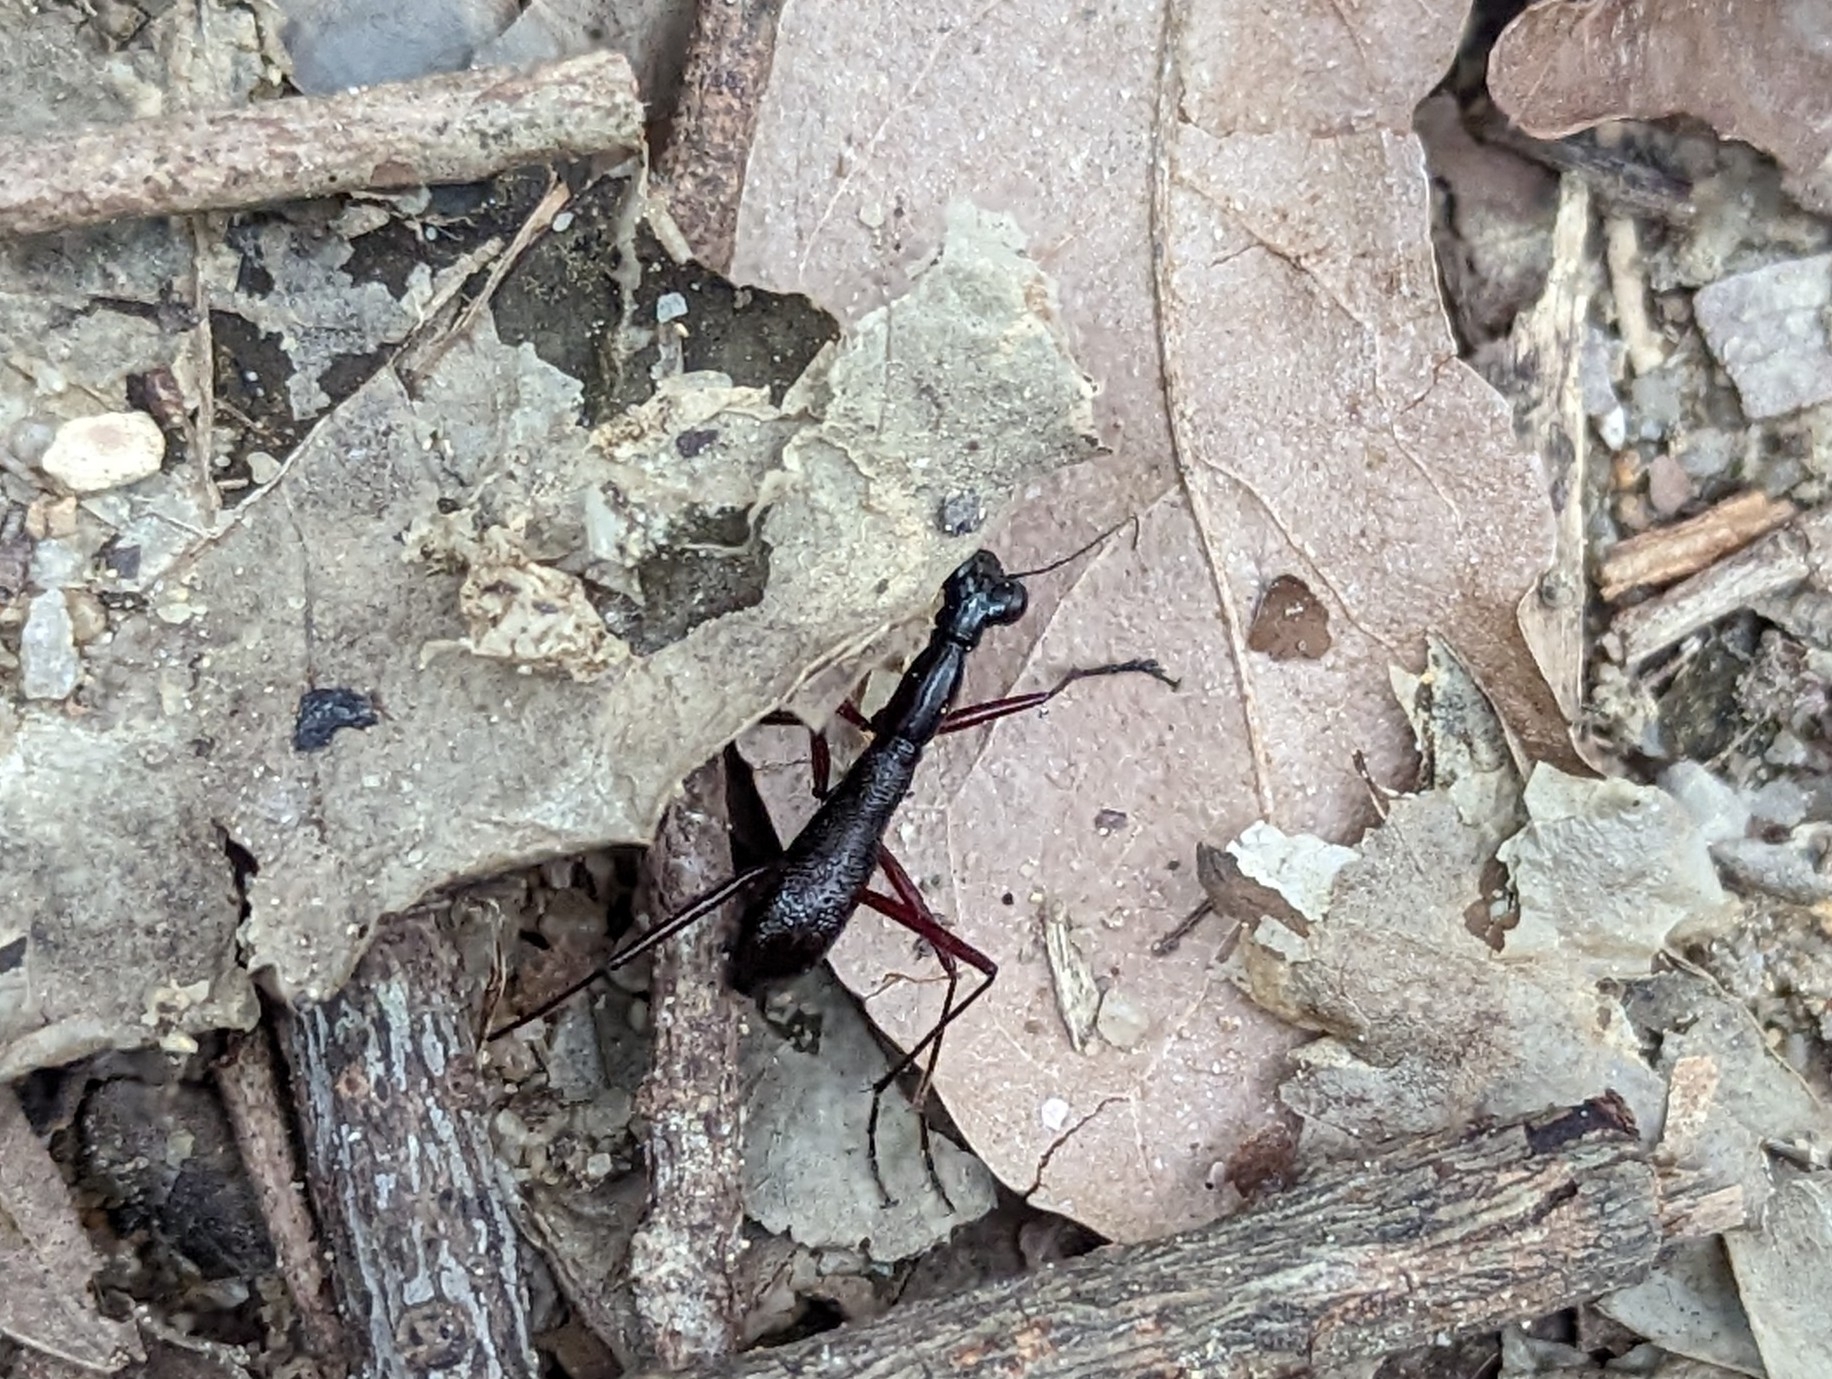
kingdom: Animalia
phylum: Arthropoda
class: Insecta
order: Coleoptera
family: Carabidae
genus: Tricondyla
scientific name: Tricondyla pulchripes
